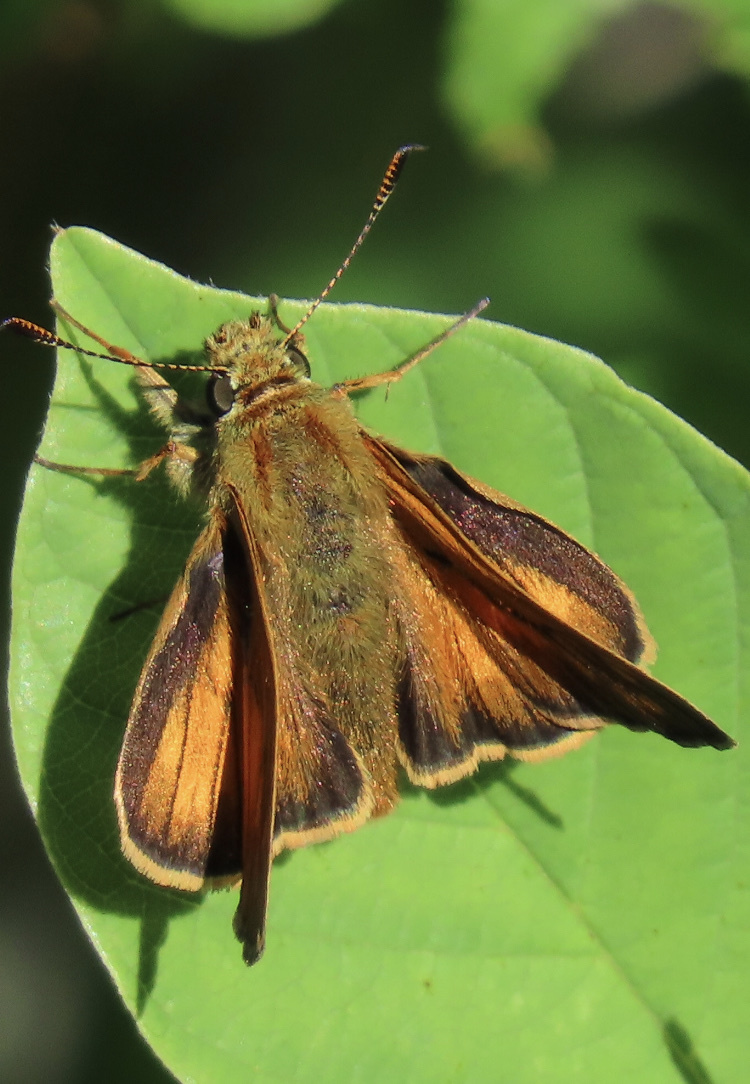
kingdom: Animalia
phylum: Arthropoda
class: Insecta
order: Lepidoptera
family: Hesperiidae
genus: Ochlodes
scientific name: Ochlodes venata
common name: Large skipper
